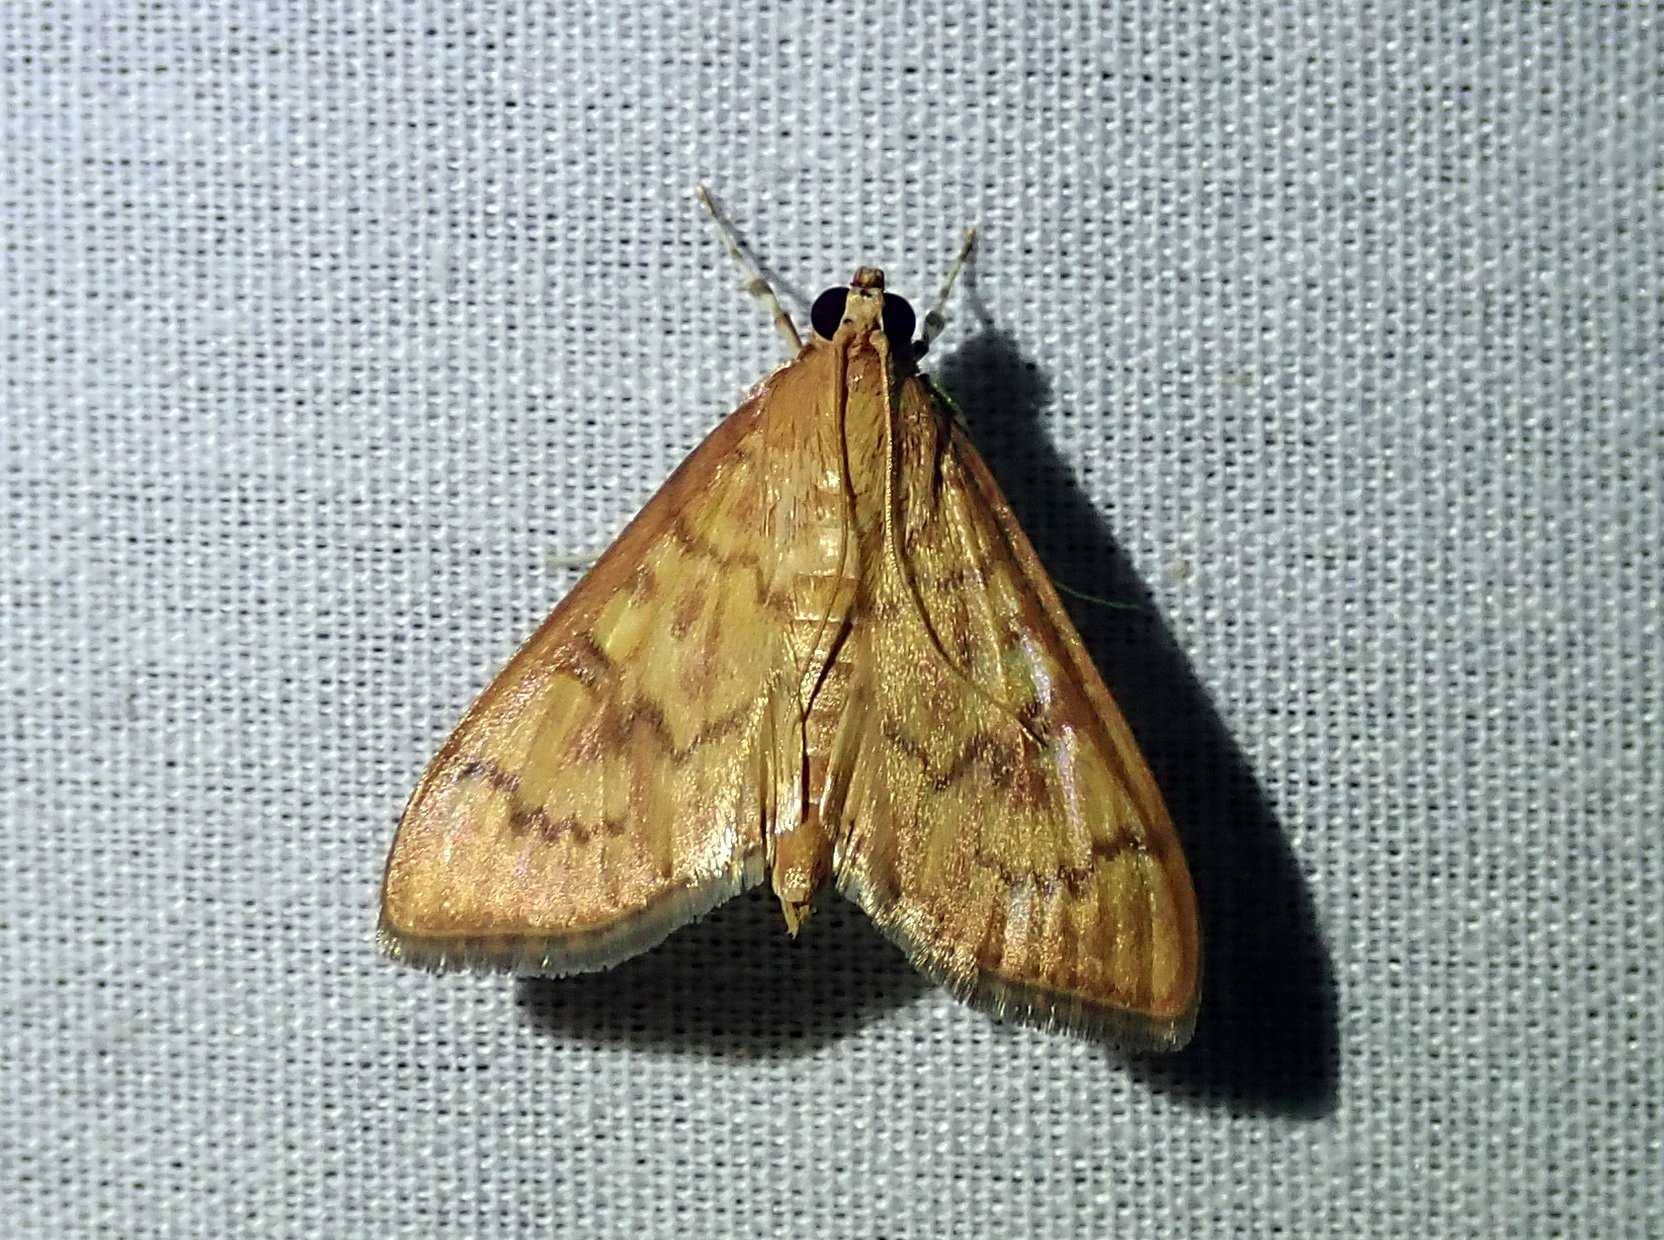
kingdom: Animalia
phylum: Arthropoda
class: Insecta
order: Lepidoptera
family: Crambidae
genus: Pilocrocis
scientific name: Pilocrocis dryalis
